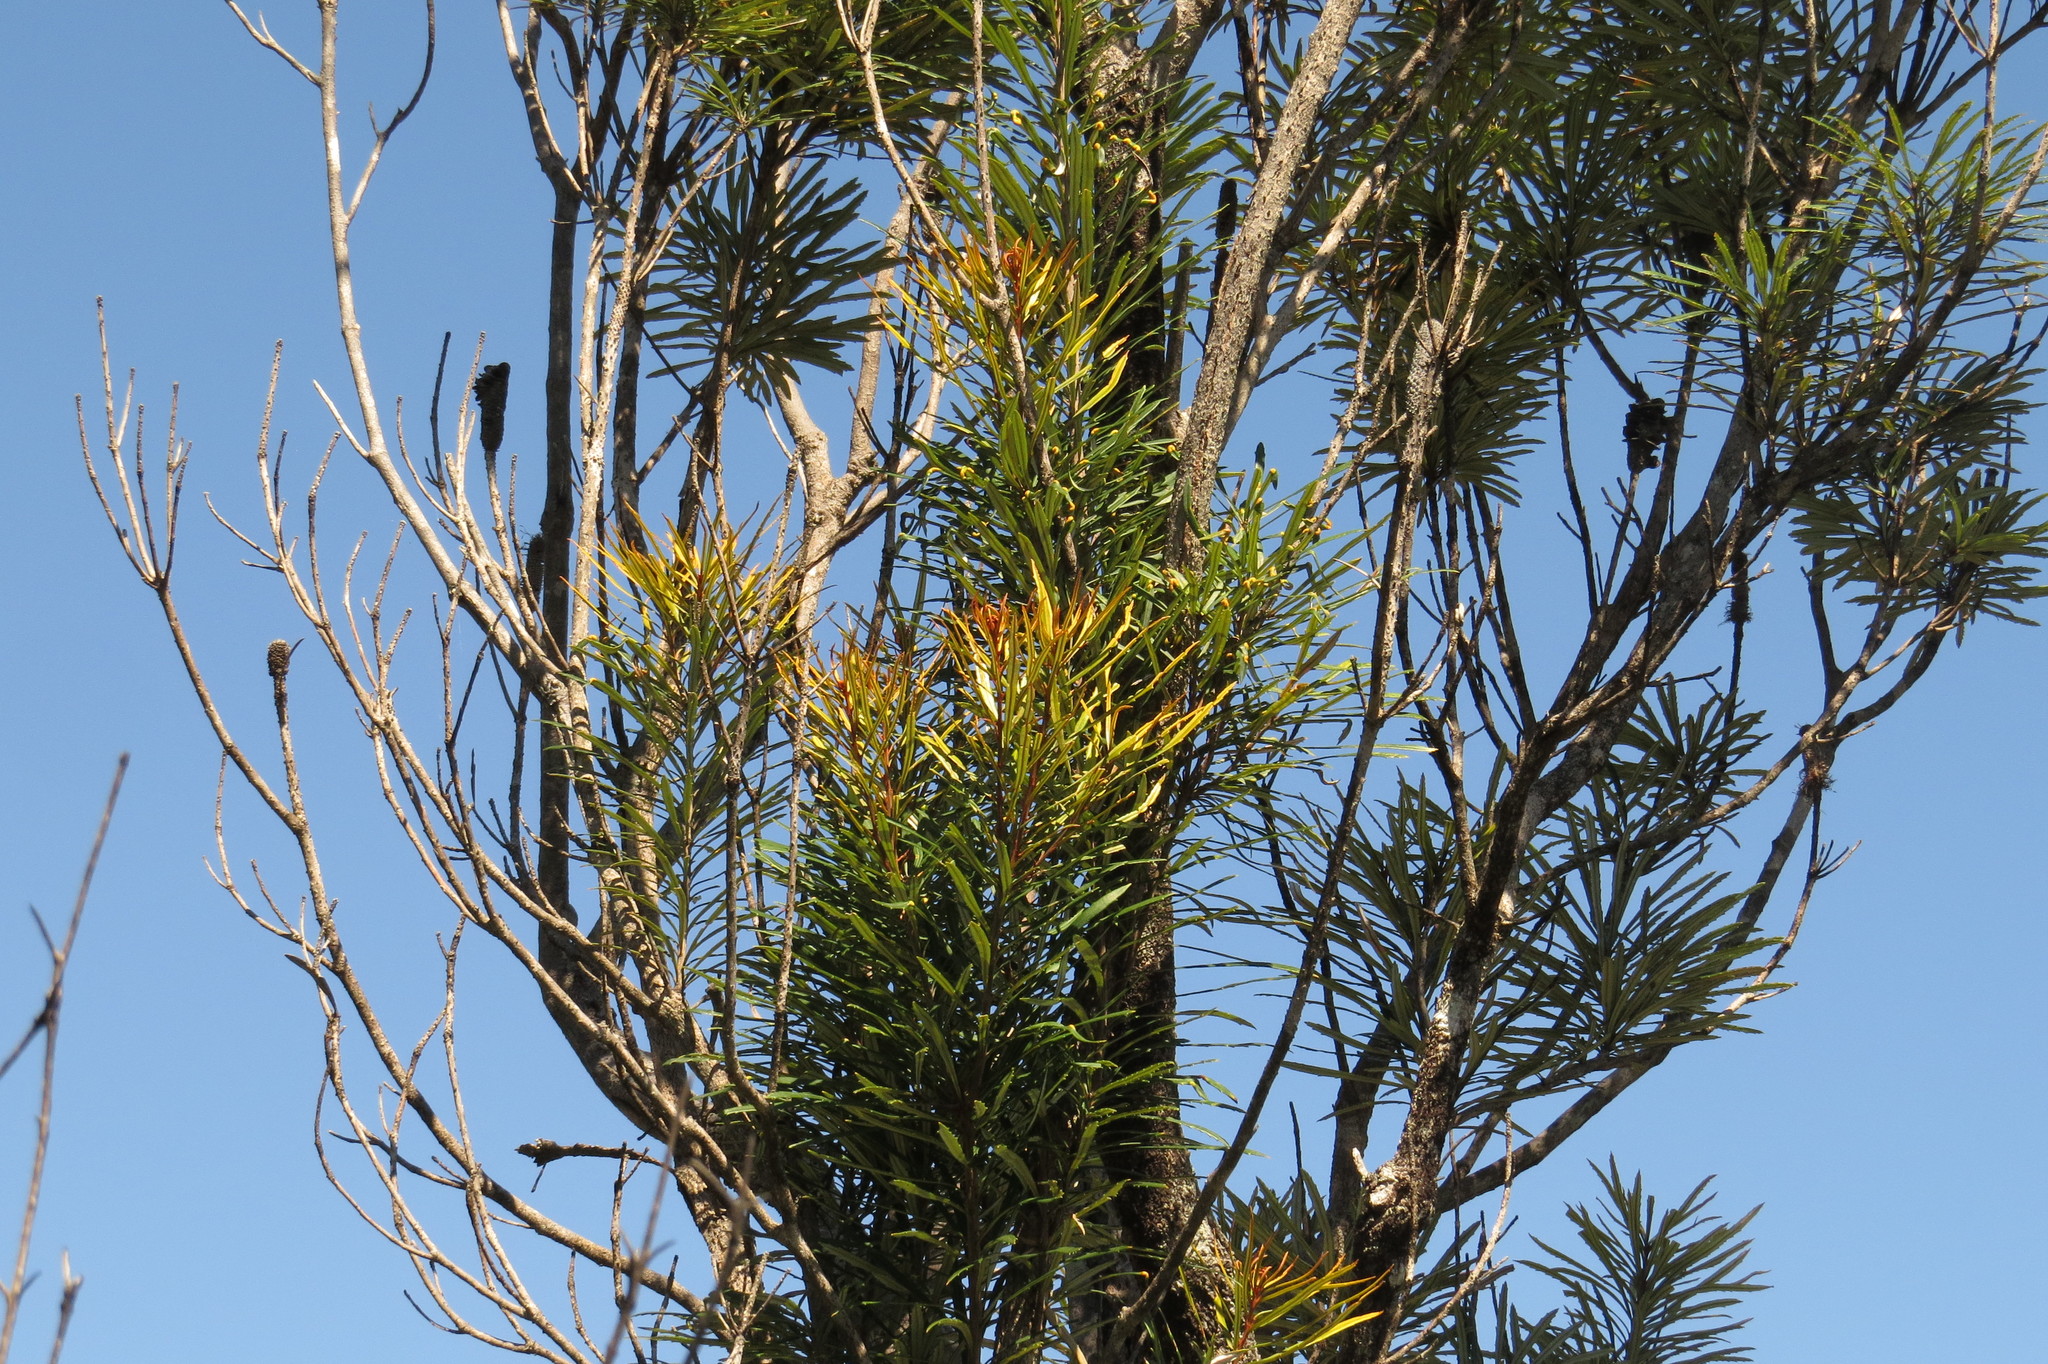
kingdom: Plantae
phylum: Tracheophyta
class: Magnoliopsida
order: Proteales
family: Proteaceae
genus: Banksia
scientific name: Banksia aquilonia
